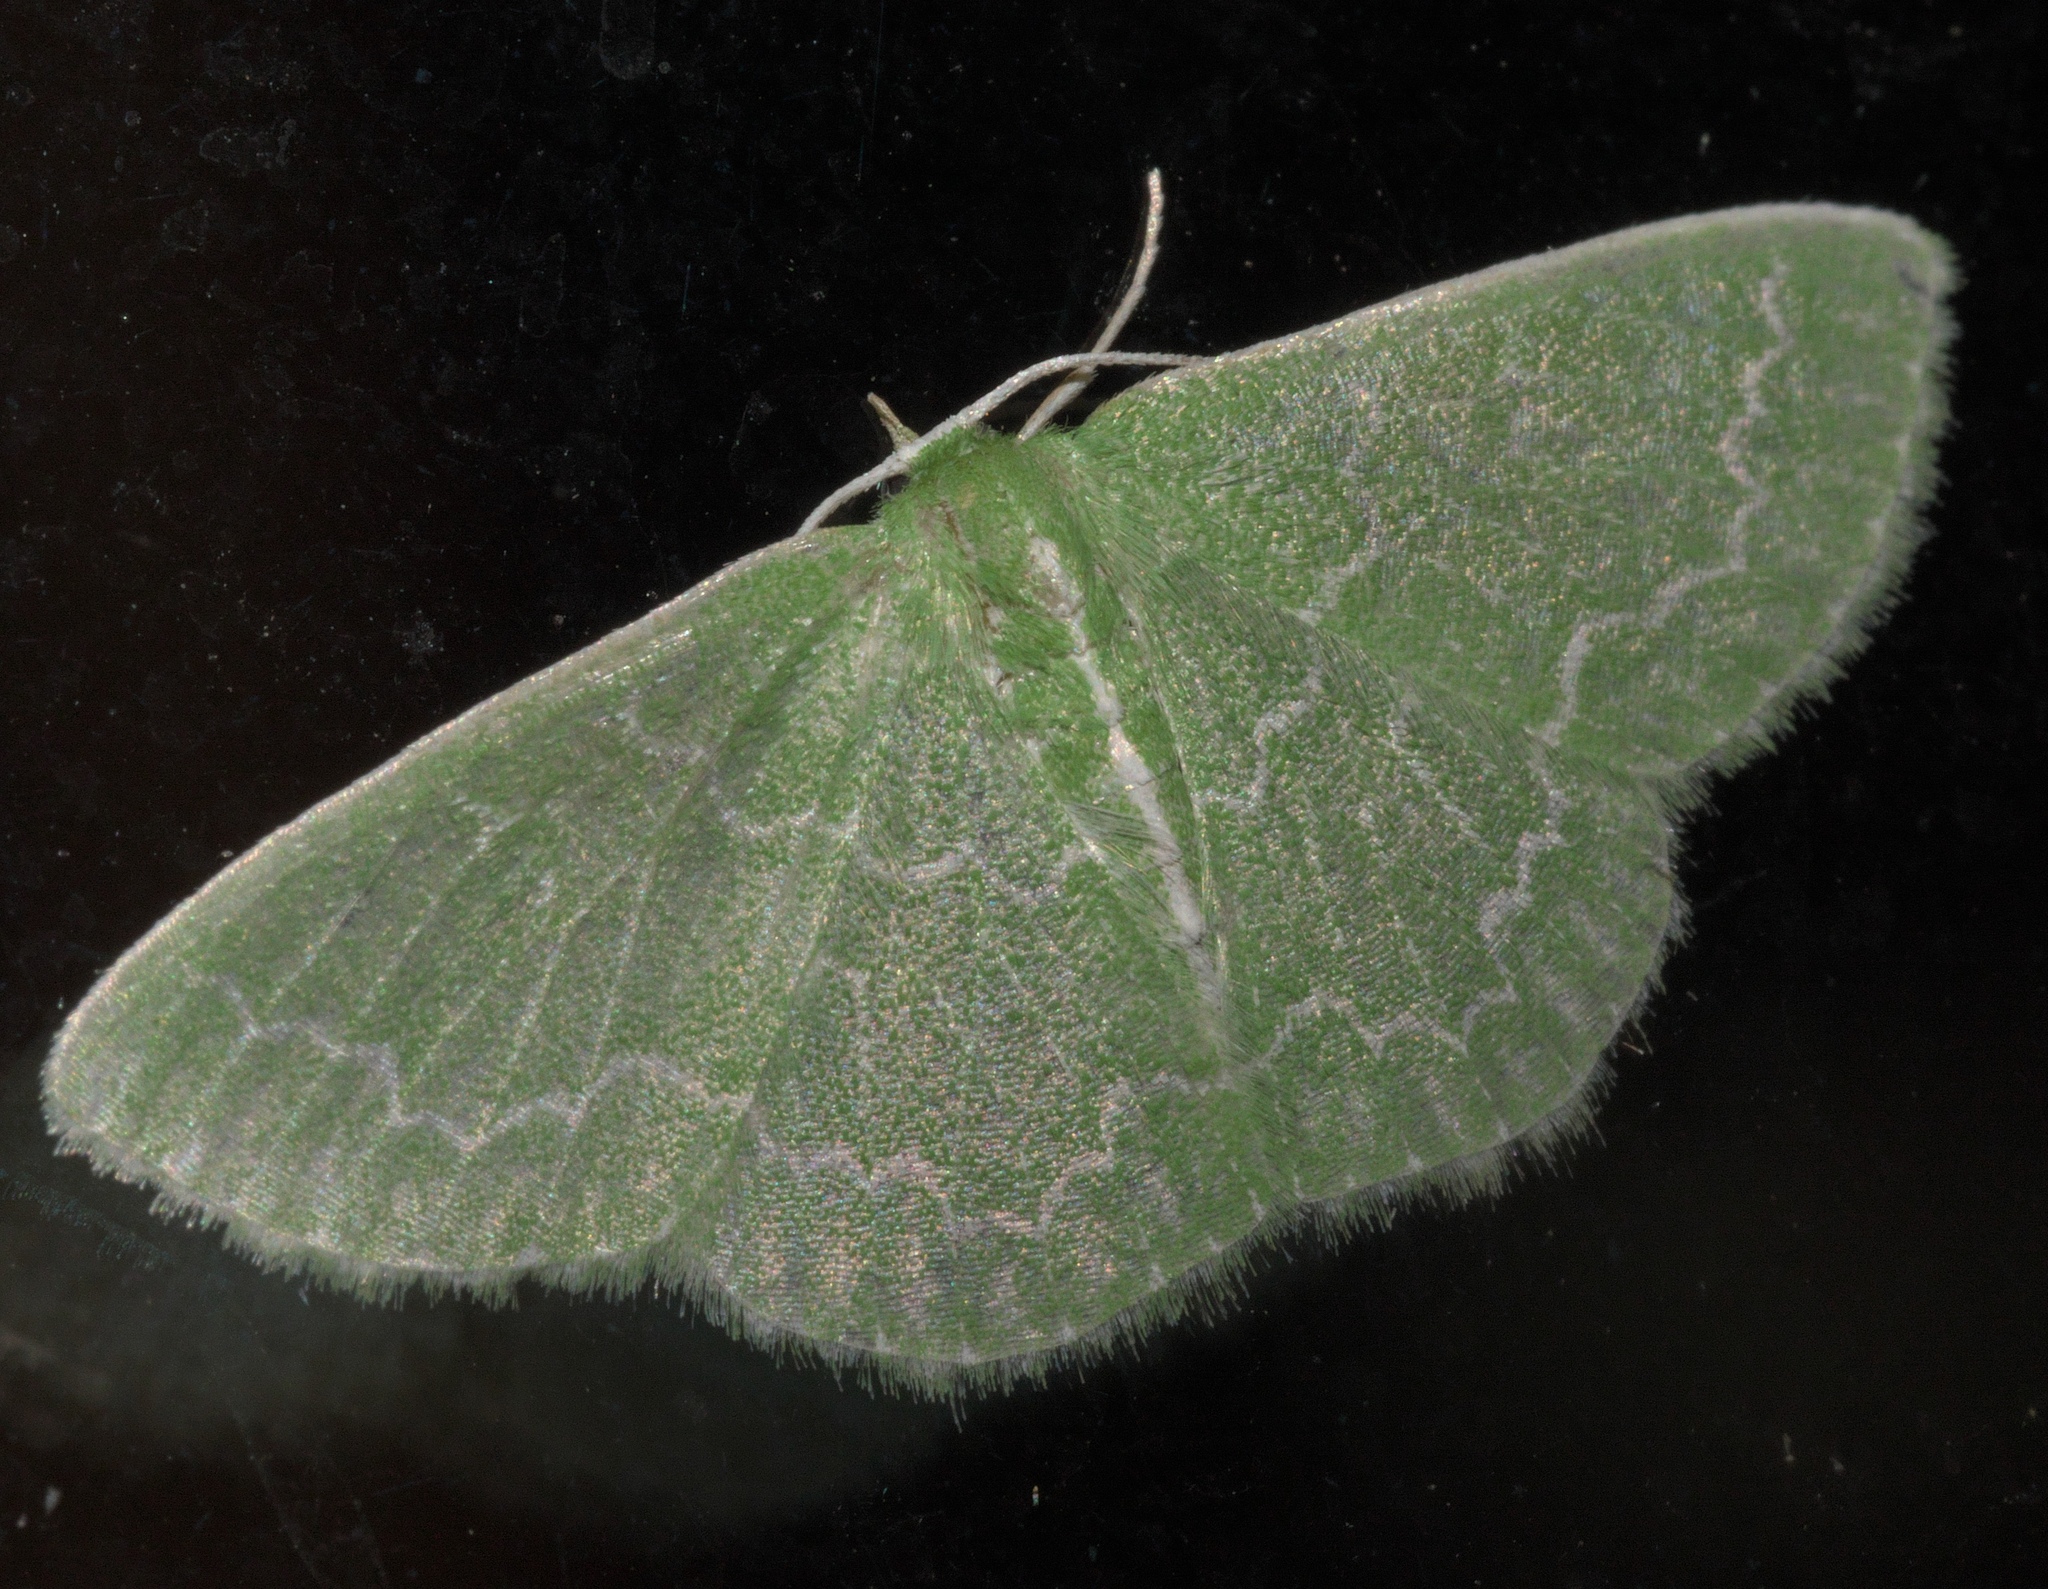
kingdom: Animalia
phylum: Arthropoda
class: Insecta
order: Lepidoptera
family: Geometridae
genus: Synchlora
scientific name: Synchlora frondaria
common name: Southern emerald
